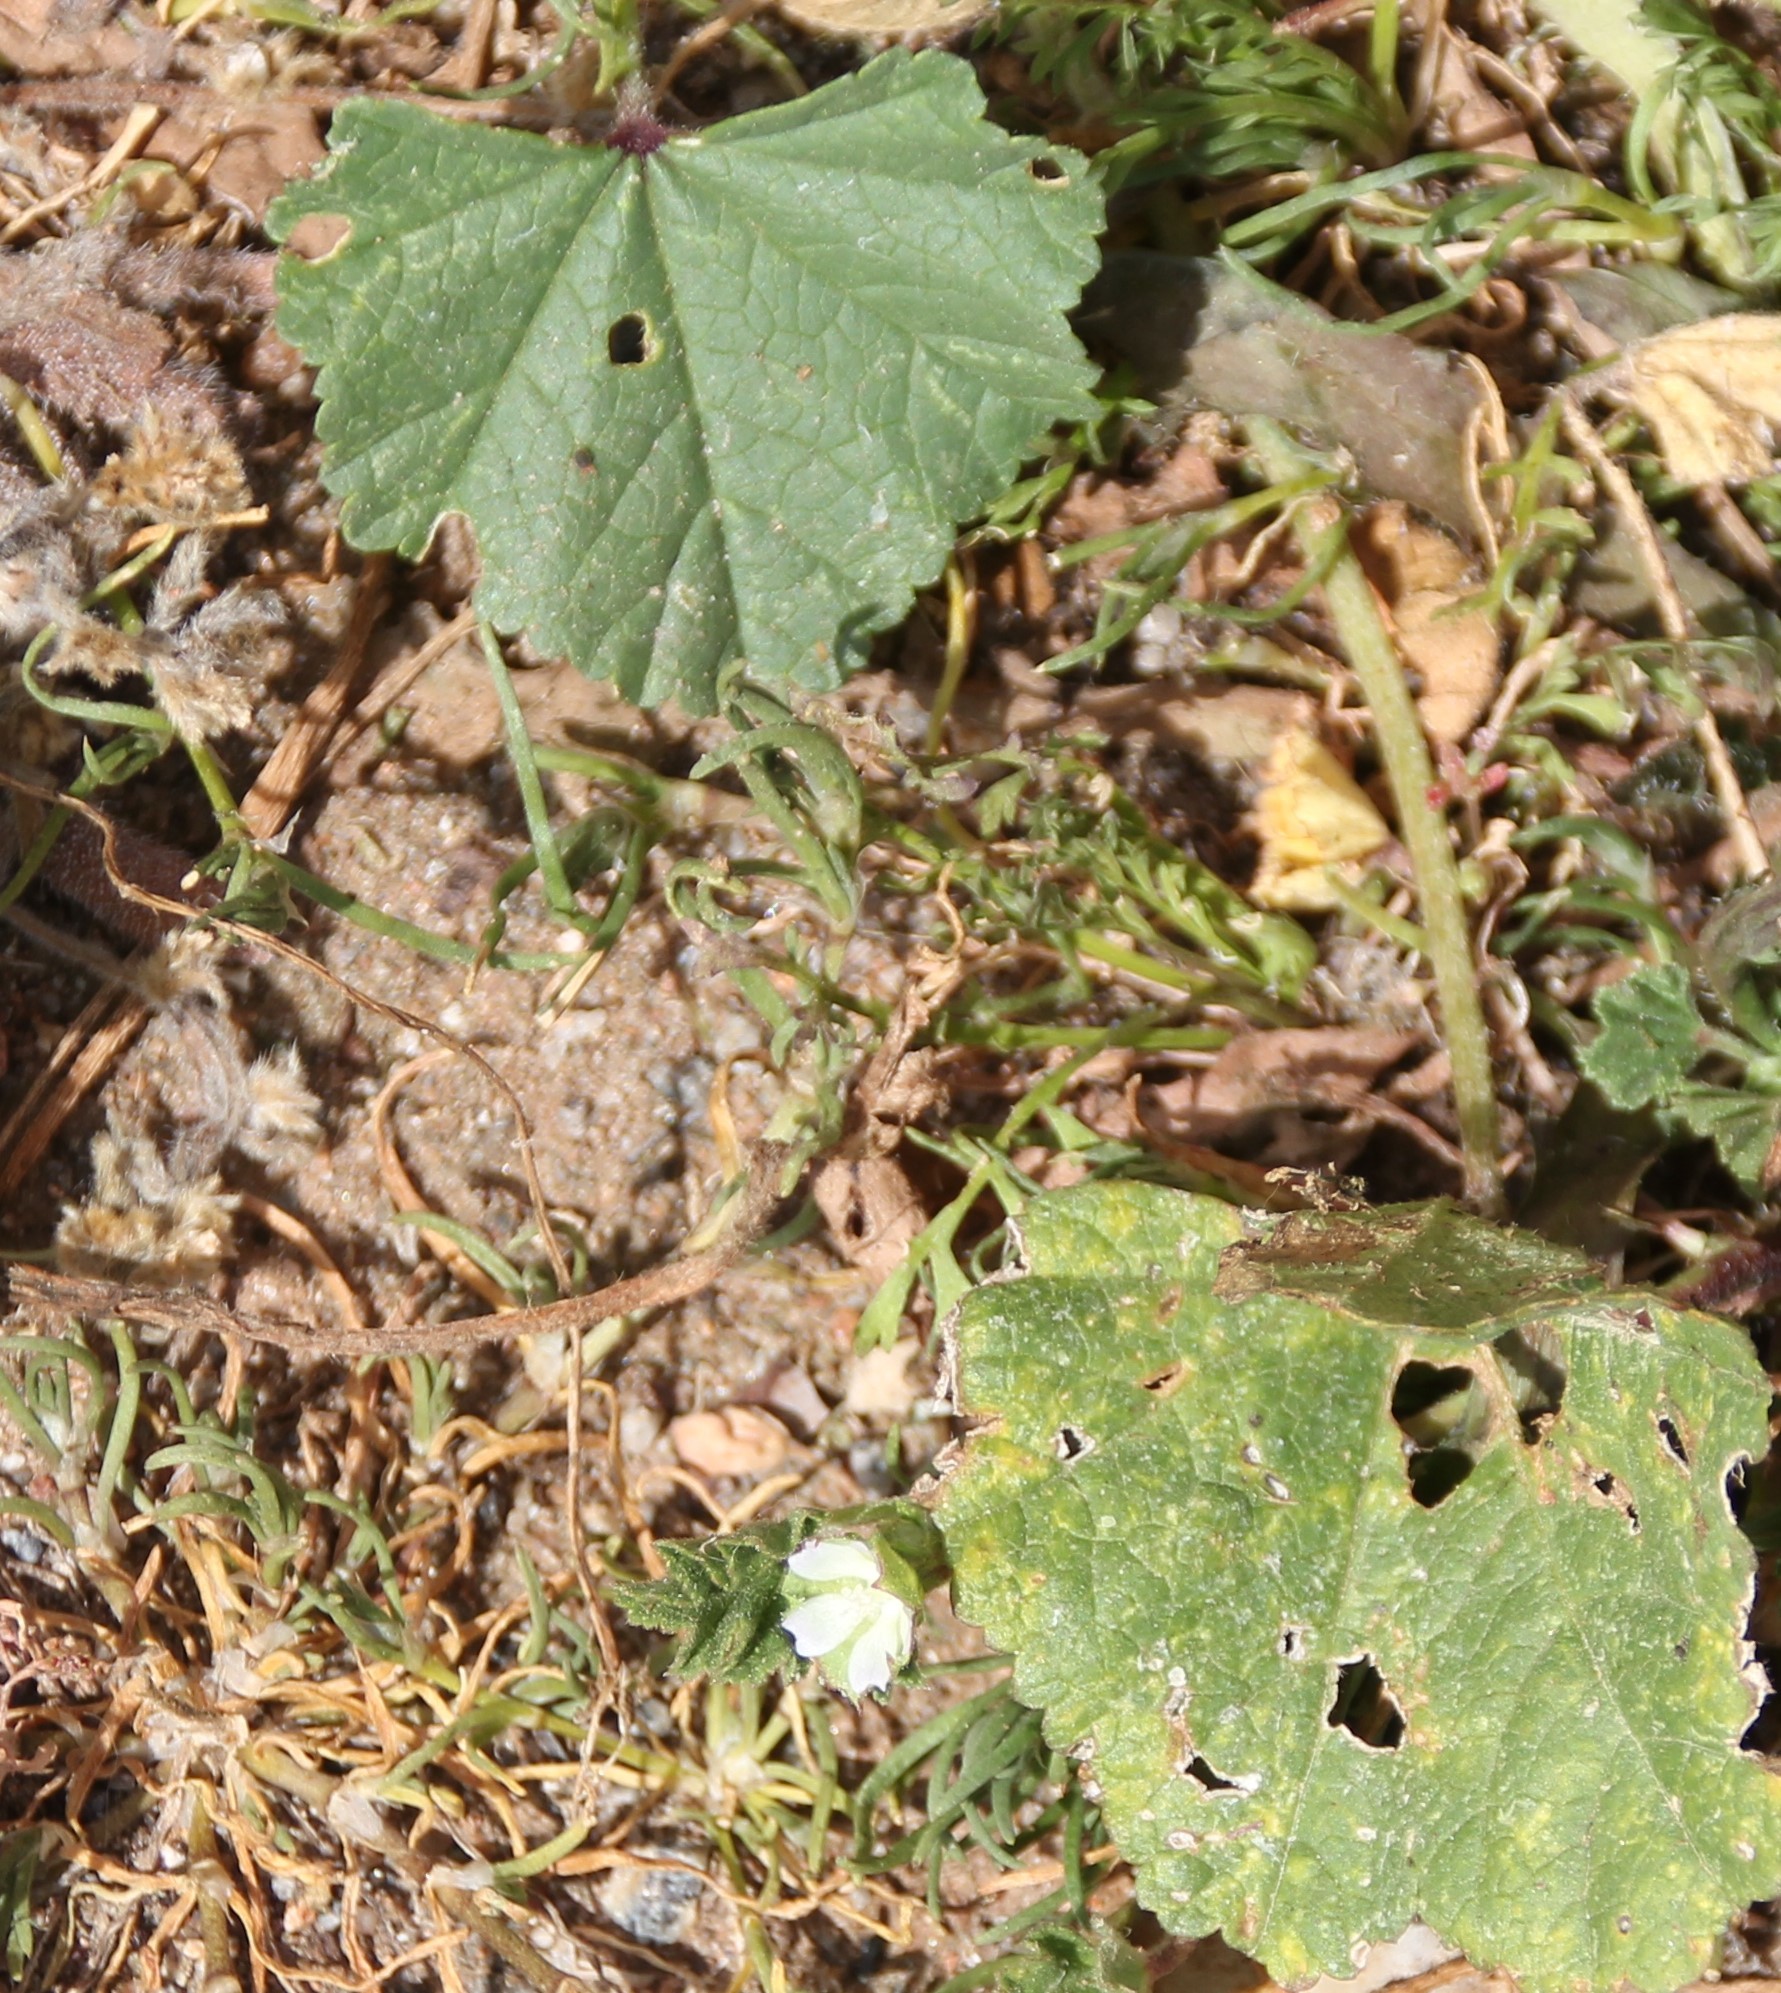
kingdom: Plantae
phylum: Tracheophyta
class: Magnoliopsida
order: Malvales
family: Malvaceae
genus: Malva
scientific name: Malva parviflora
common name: Least mallow
